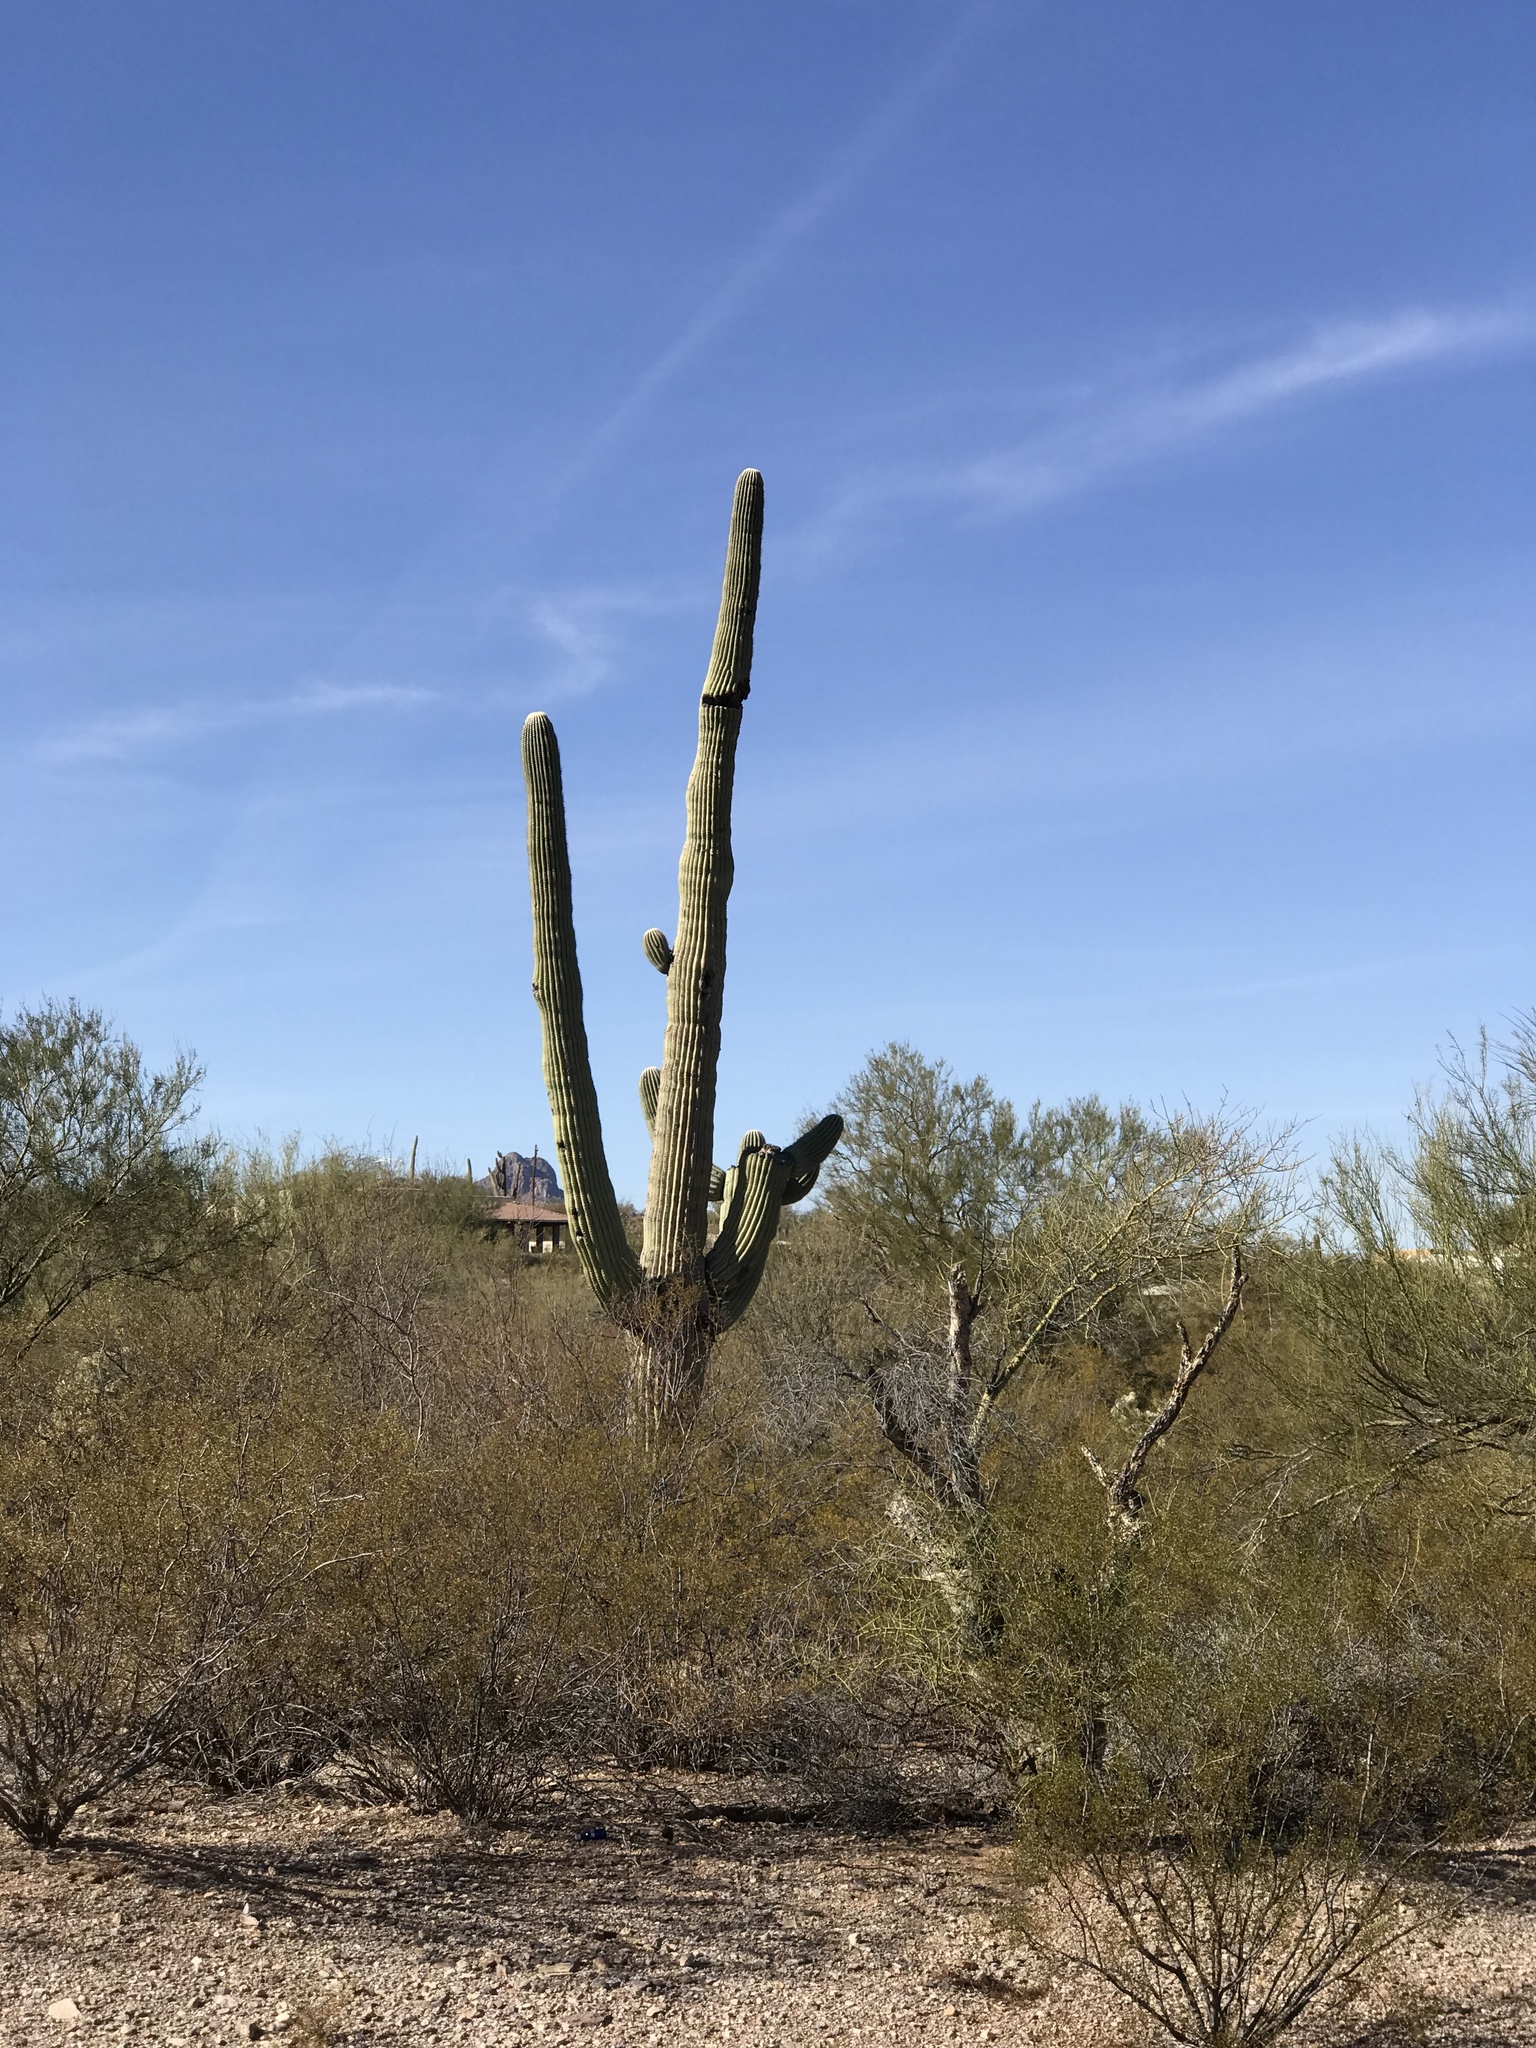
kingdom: Plantae
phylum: Tracheophyta
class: Magnoliopsida
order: Zygophyllales
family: Zygophyllaceae
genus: Larrea
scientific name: Larrea tridentata
